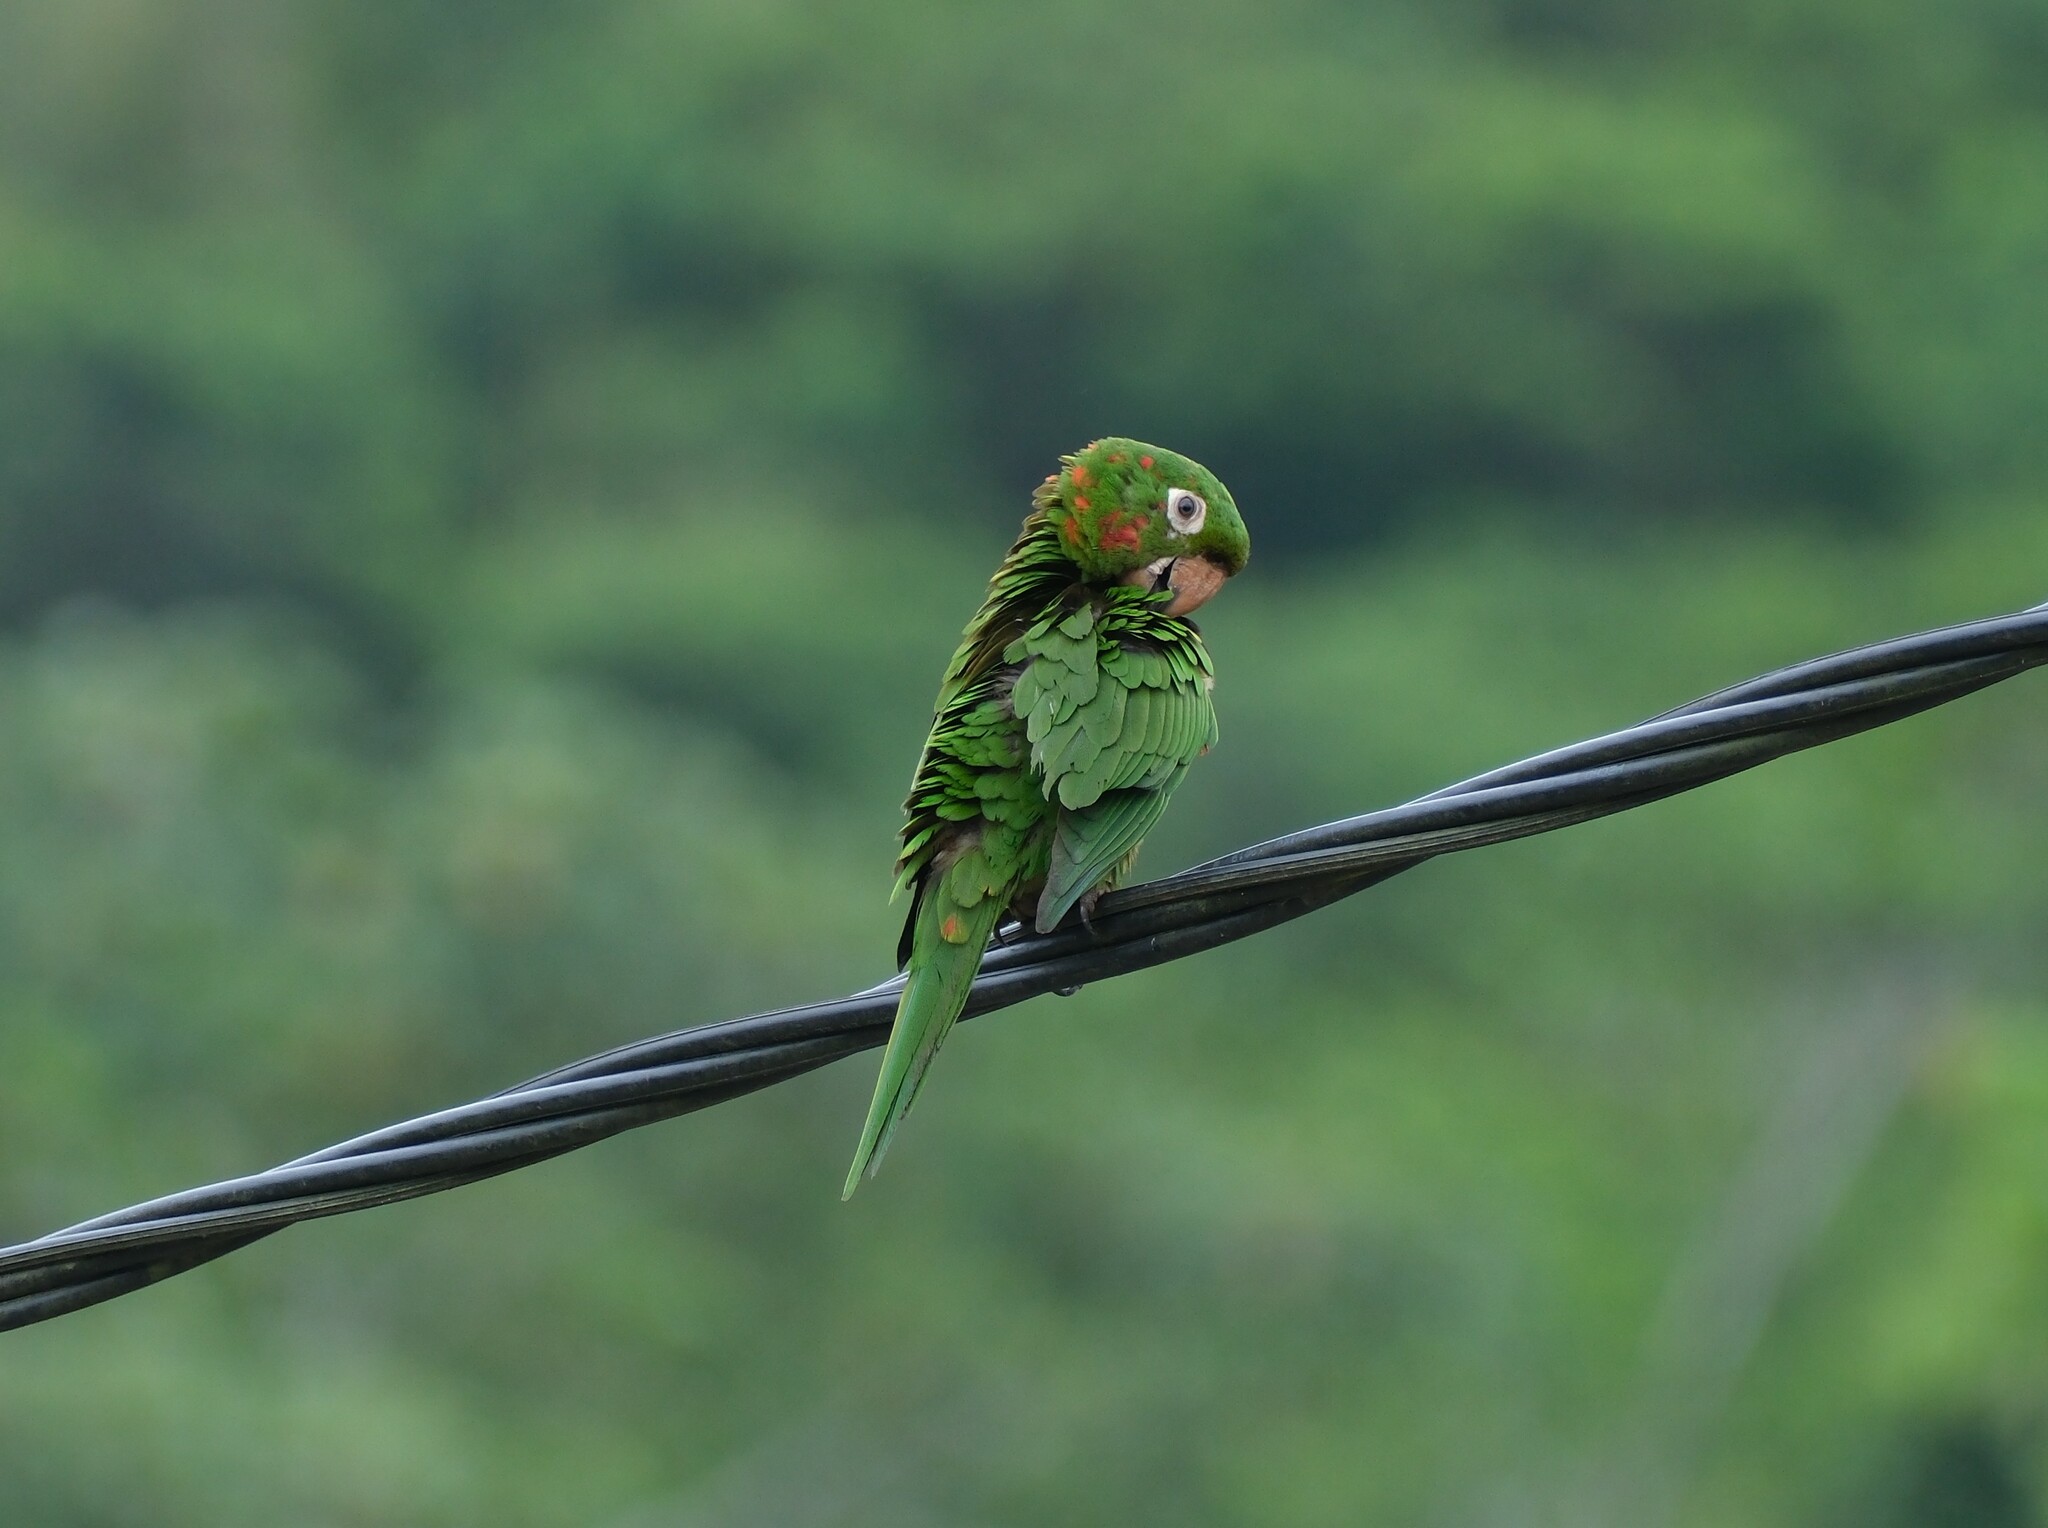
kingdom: Animalia
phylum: Chordata
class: Aves
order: Psittaciformes
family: Psittacidae
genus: Aratinga
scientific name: Aratinga leucophthalma
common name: White-eyed parakeet
